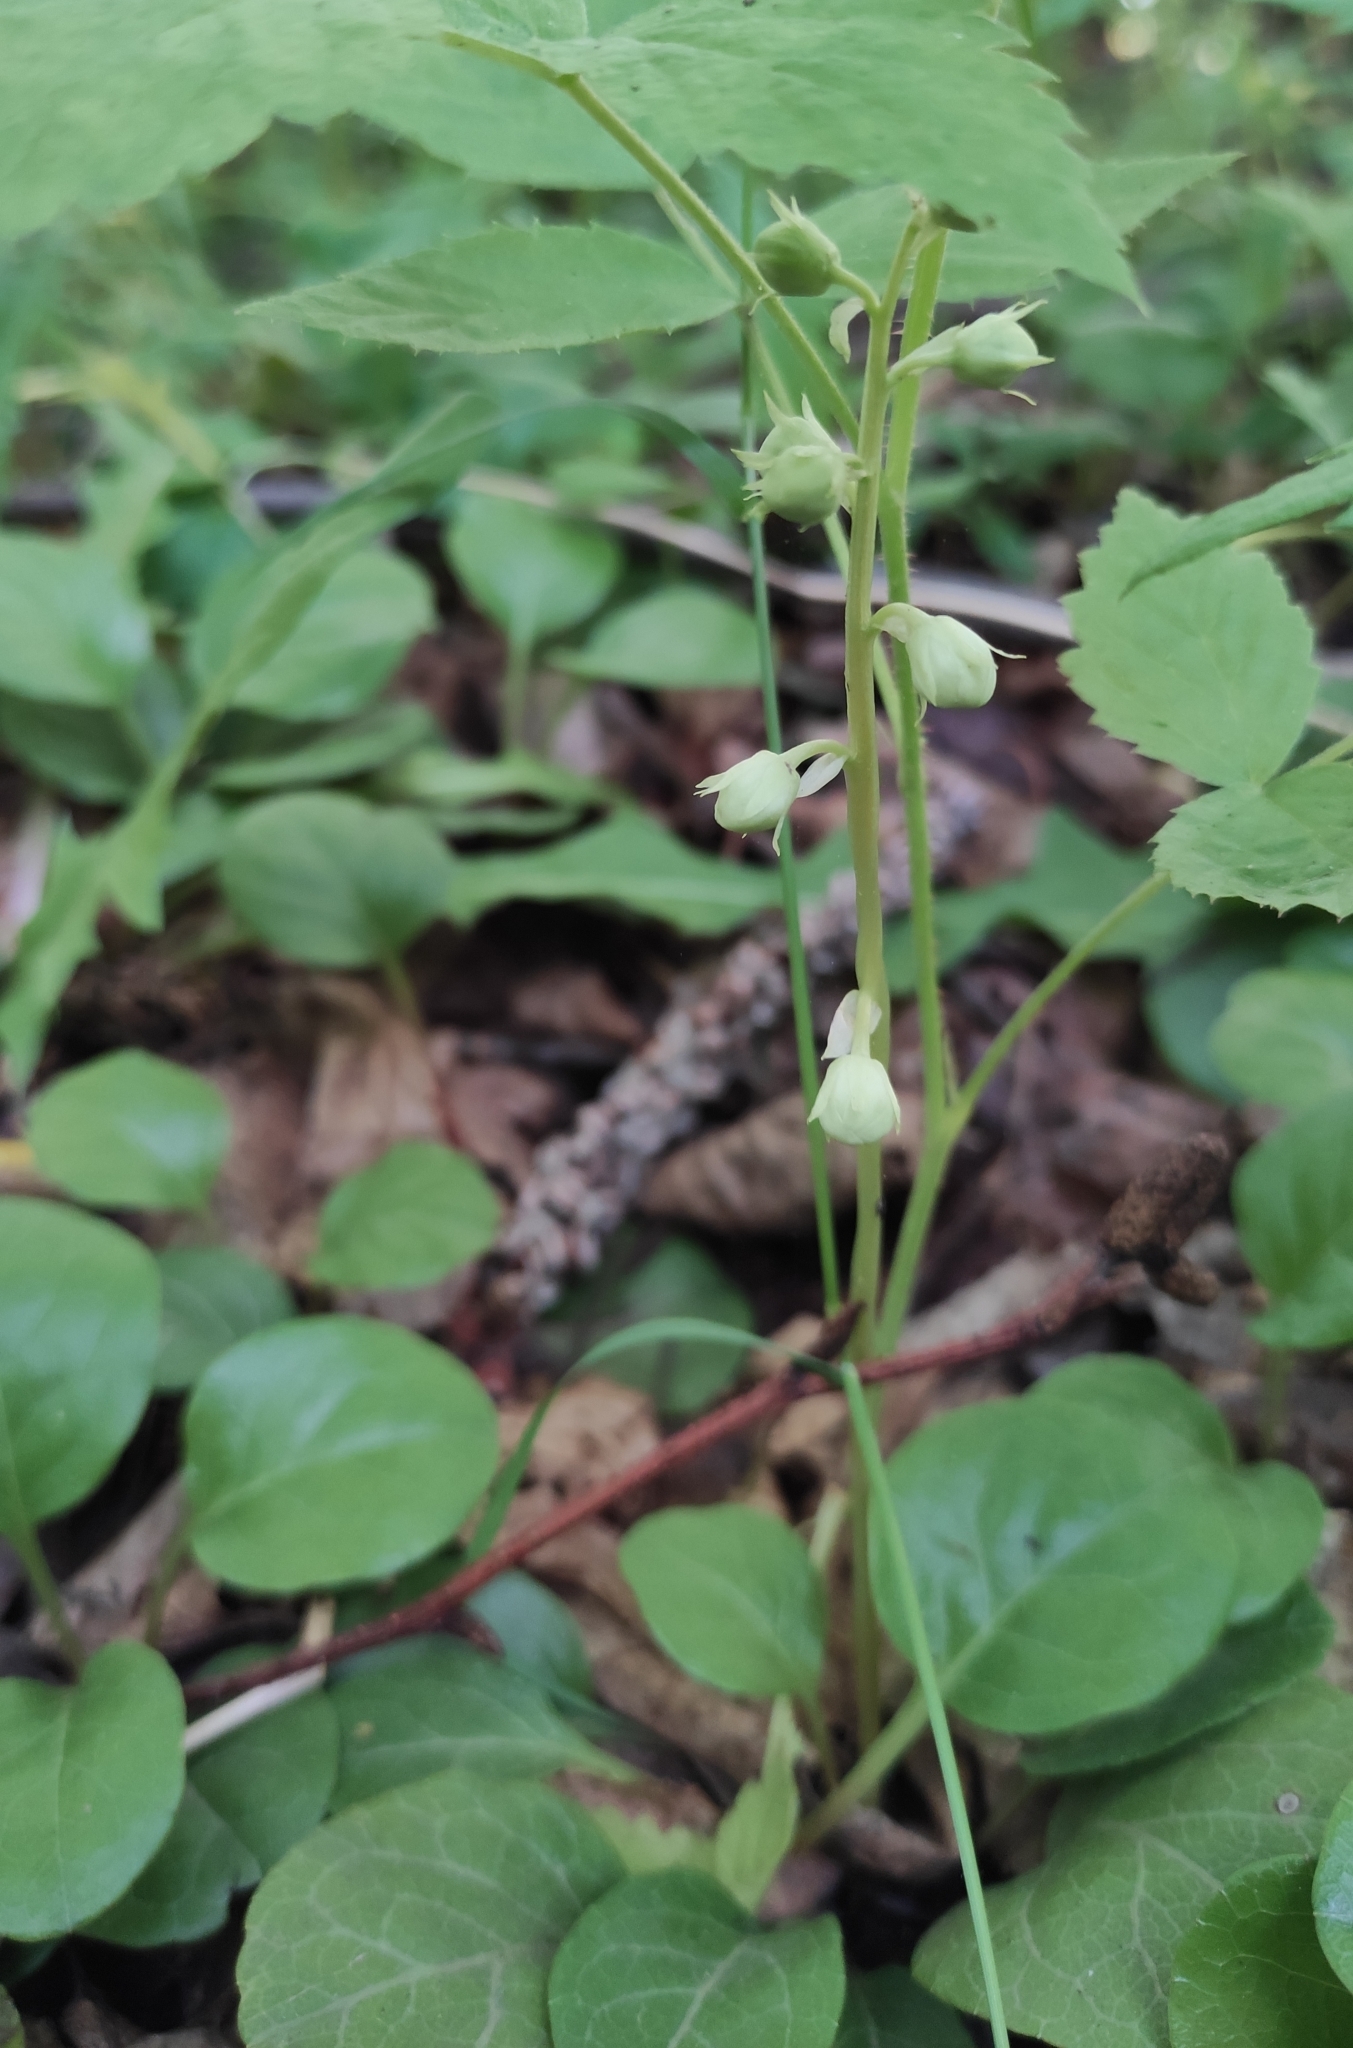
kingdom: Plantae
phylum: Tracheophyta
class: Magnoliopsida
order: Ericales
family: Ericaceae
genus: Pyrola
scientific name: Pyrola rotundifolia
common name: Round-leaved wintergreen
